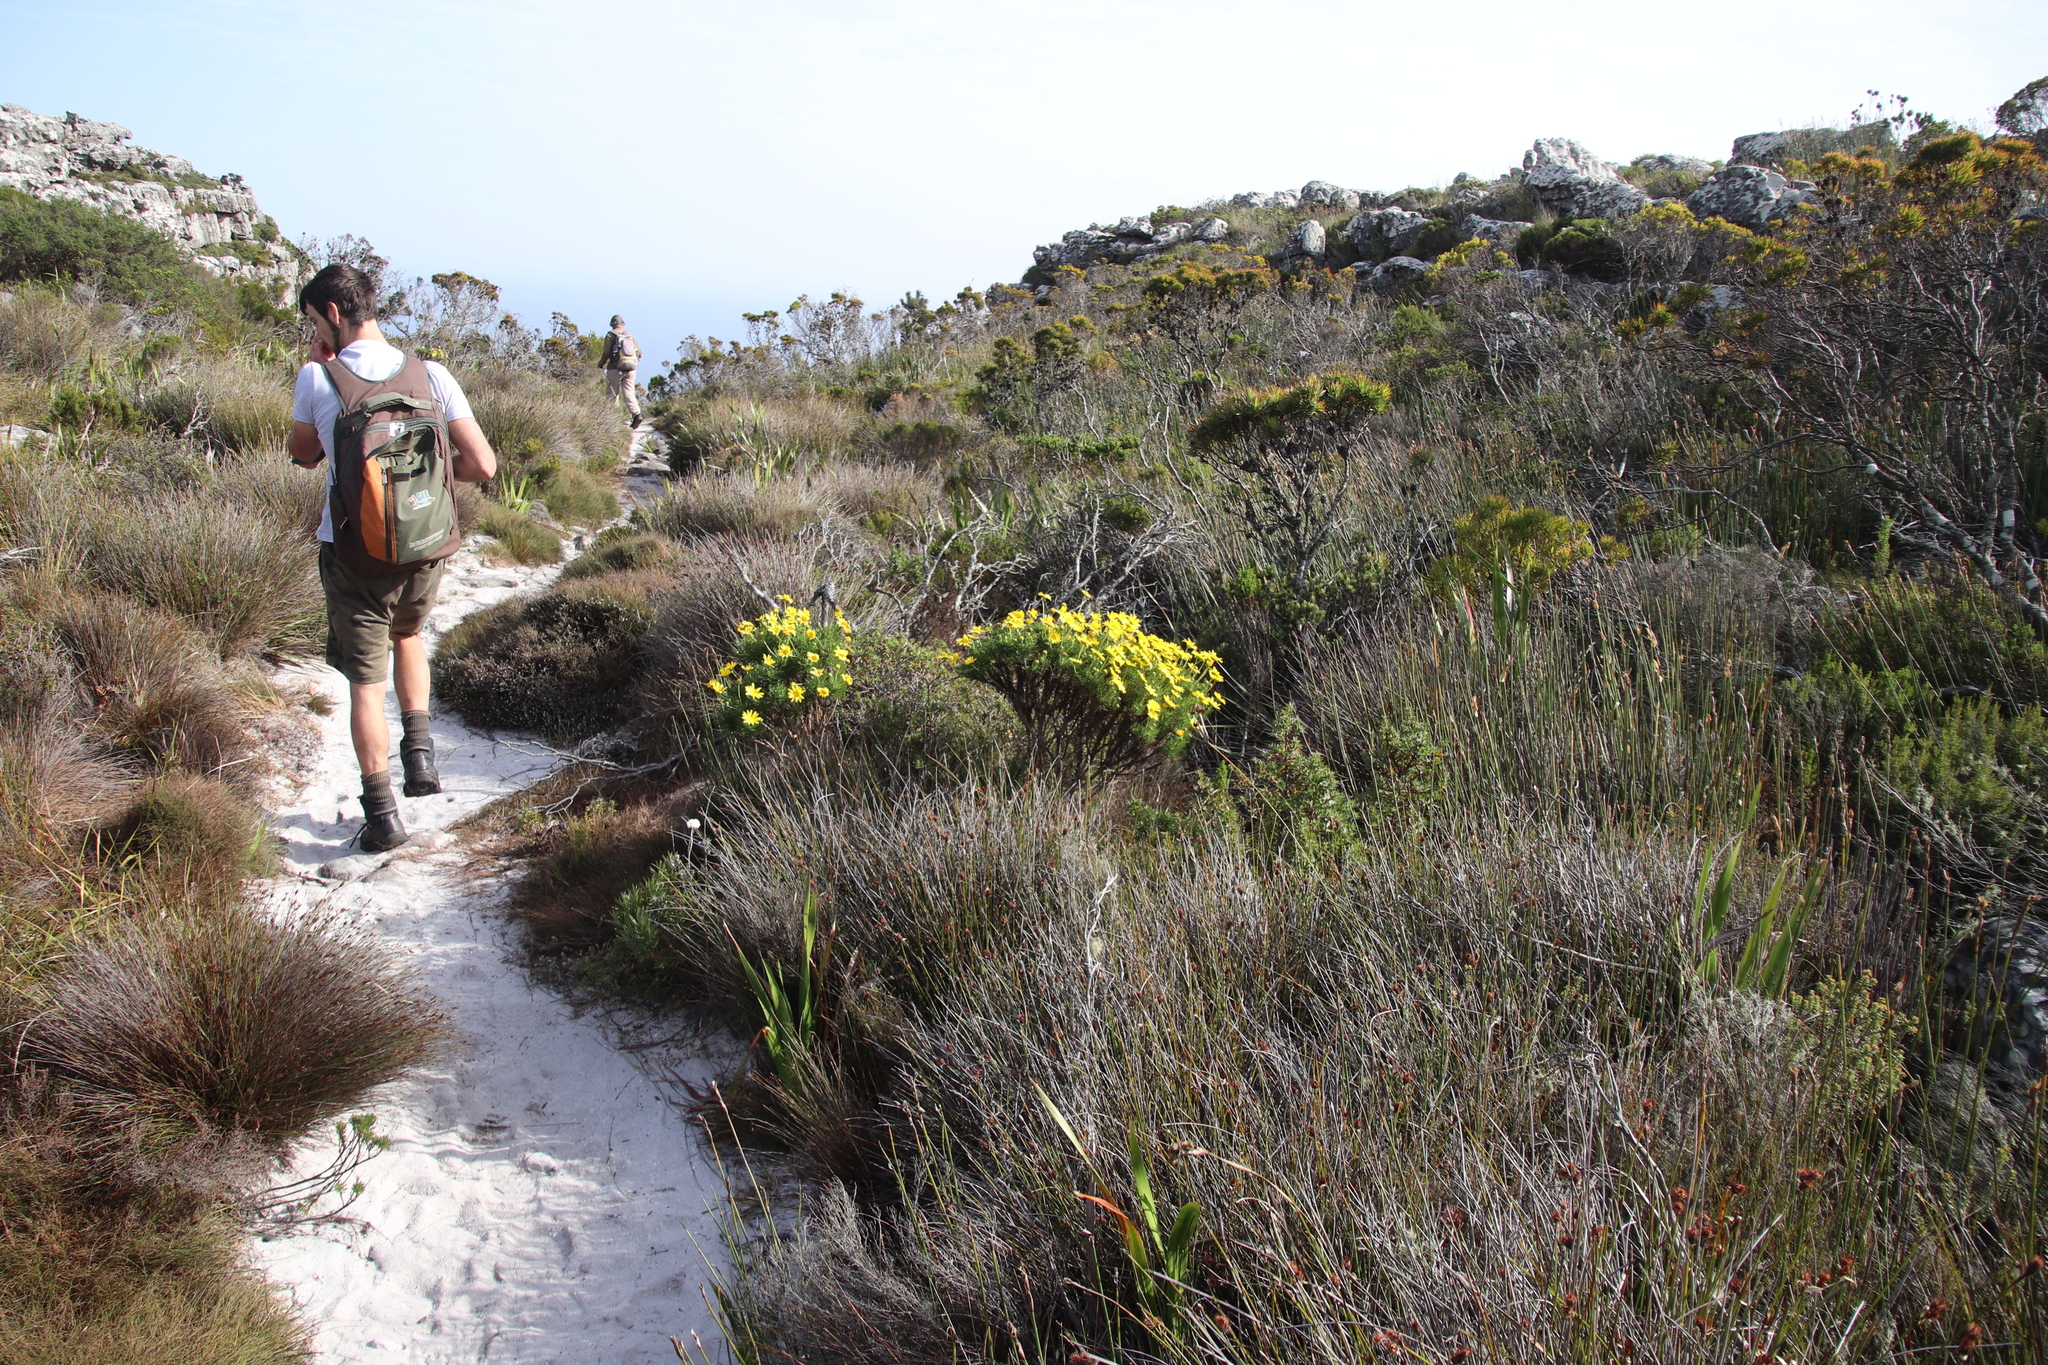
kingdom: Plantae
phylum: Tracheophyta
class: Magnoliopsida
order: Asterales
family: Asteraceae
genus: Euryops
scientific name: Euryops abrotanifolius
